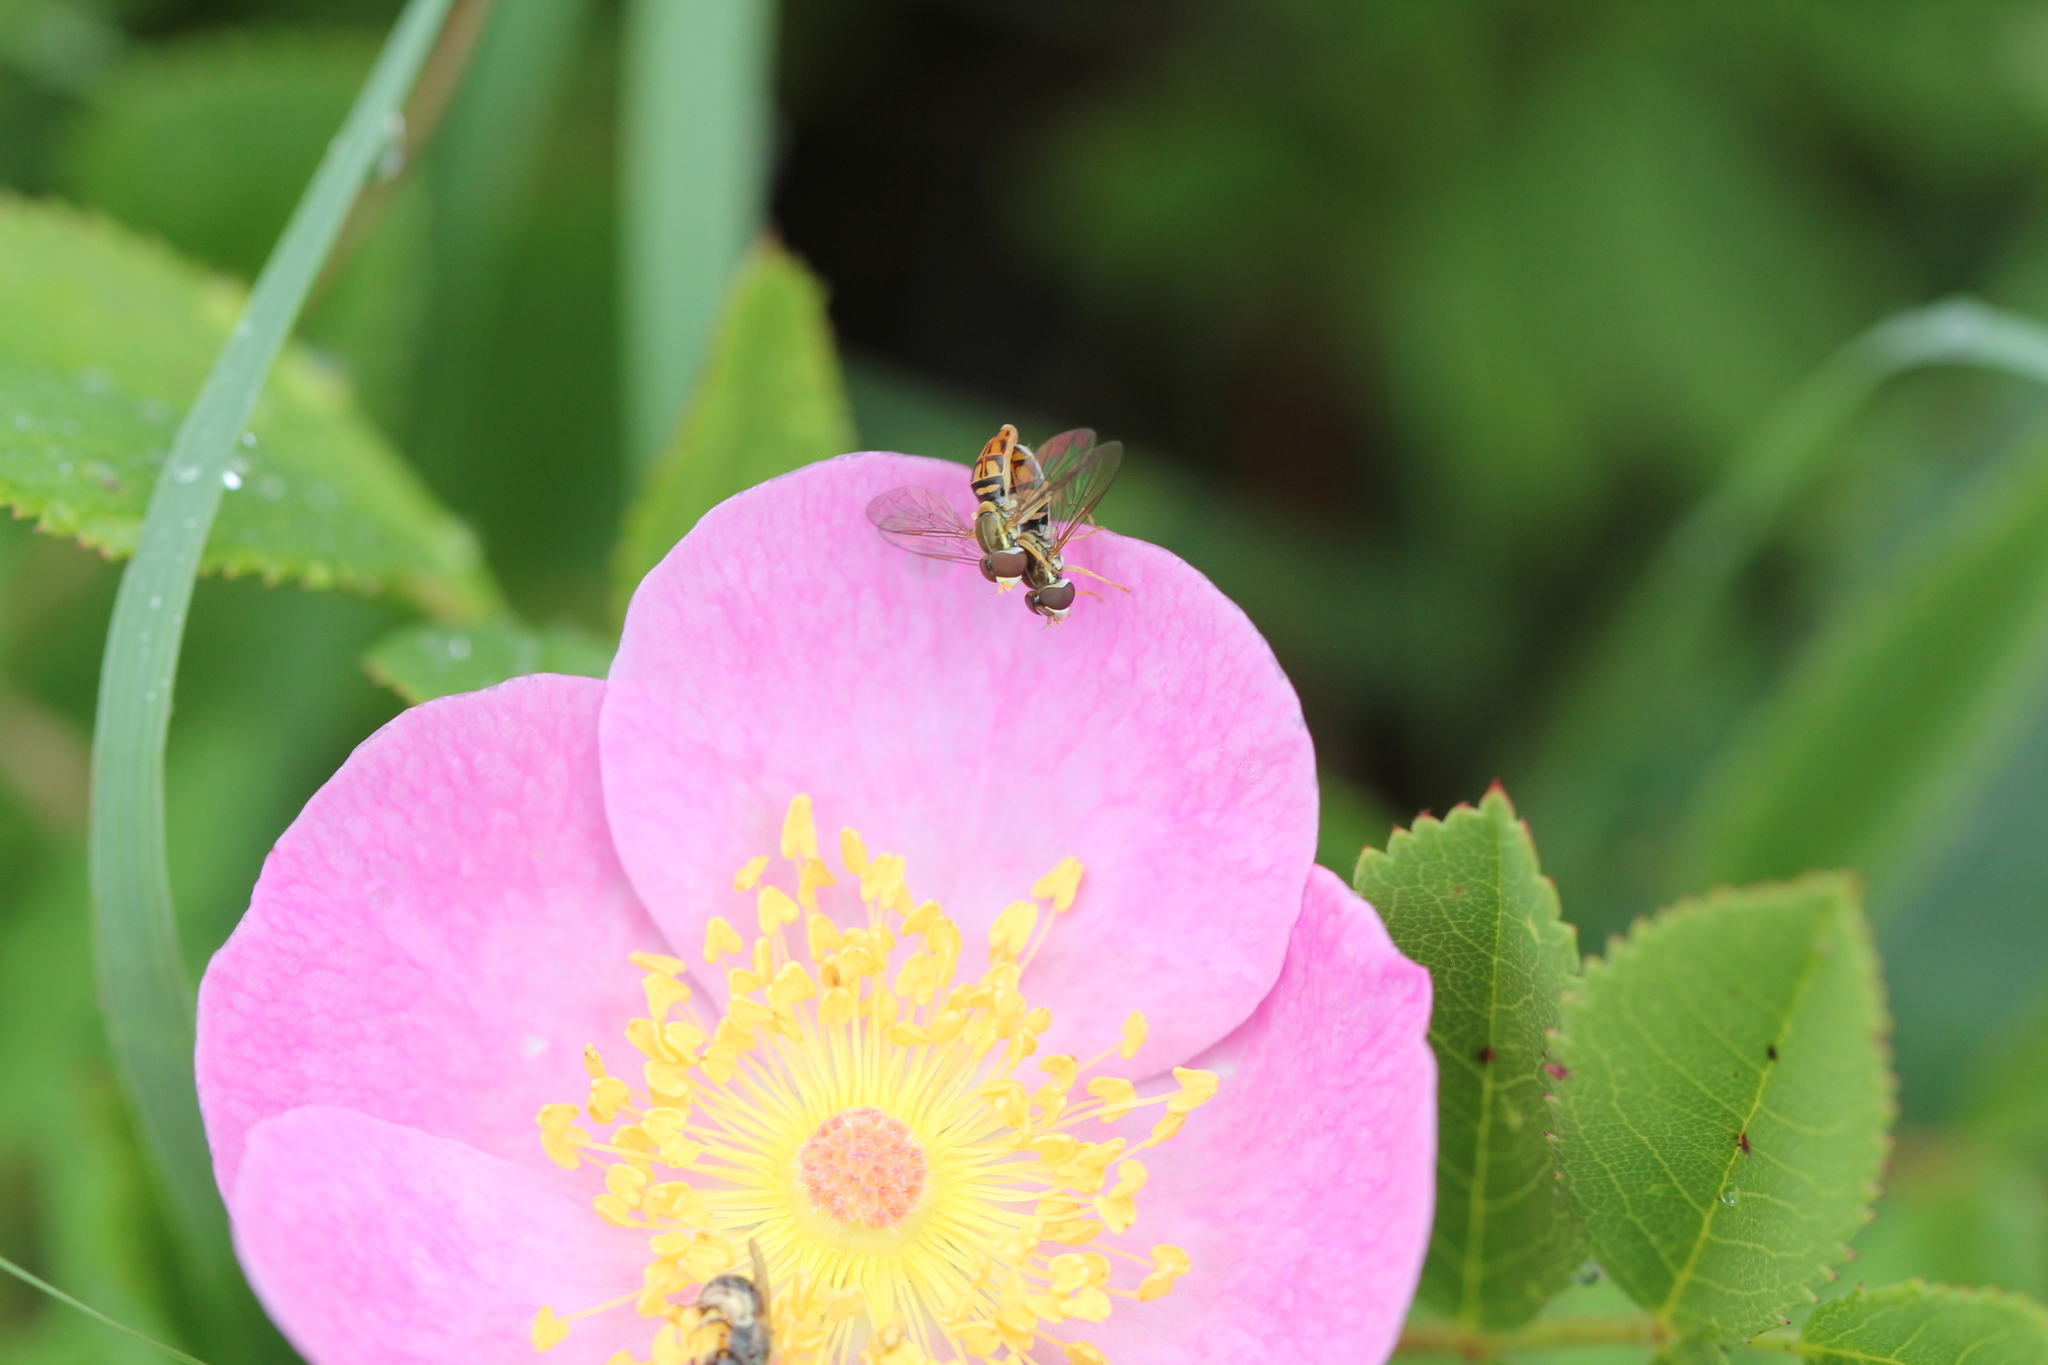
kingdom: Animalia
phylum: Arthropoda
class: Insecta
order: Diptera
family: Syrphidae
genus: Toxomerus
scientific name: Toxomerus marginatus
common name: Syrphid fly
